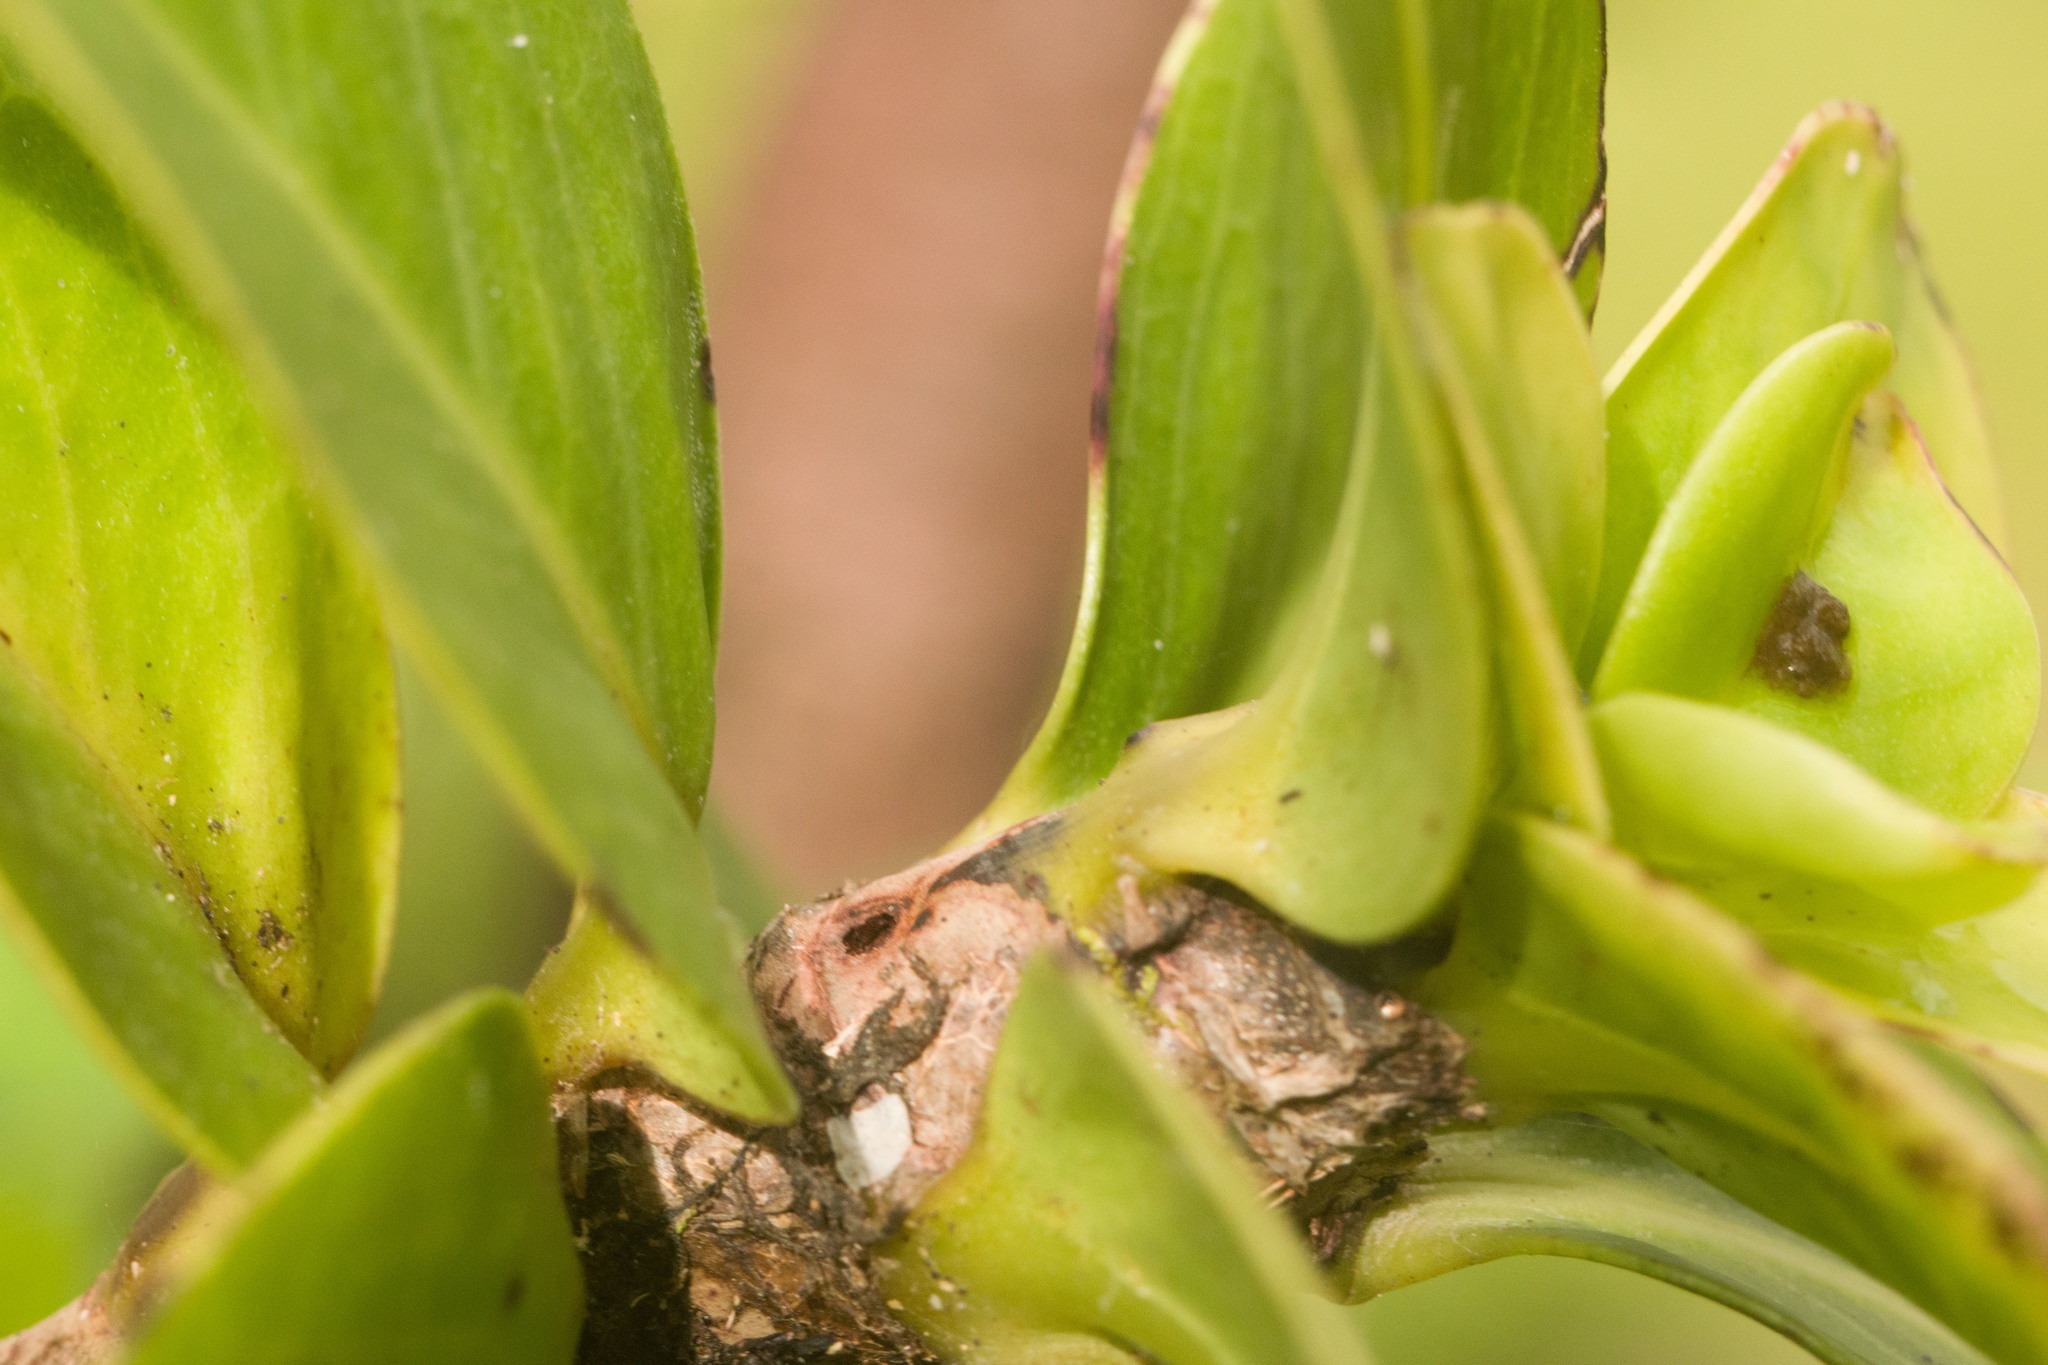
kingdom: Animalia
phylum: Arthropoda
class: Insecta
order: Lepidoptera
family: Gelechiidae
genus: Merimnetria
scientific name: Merimnetria homoxyla
